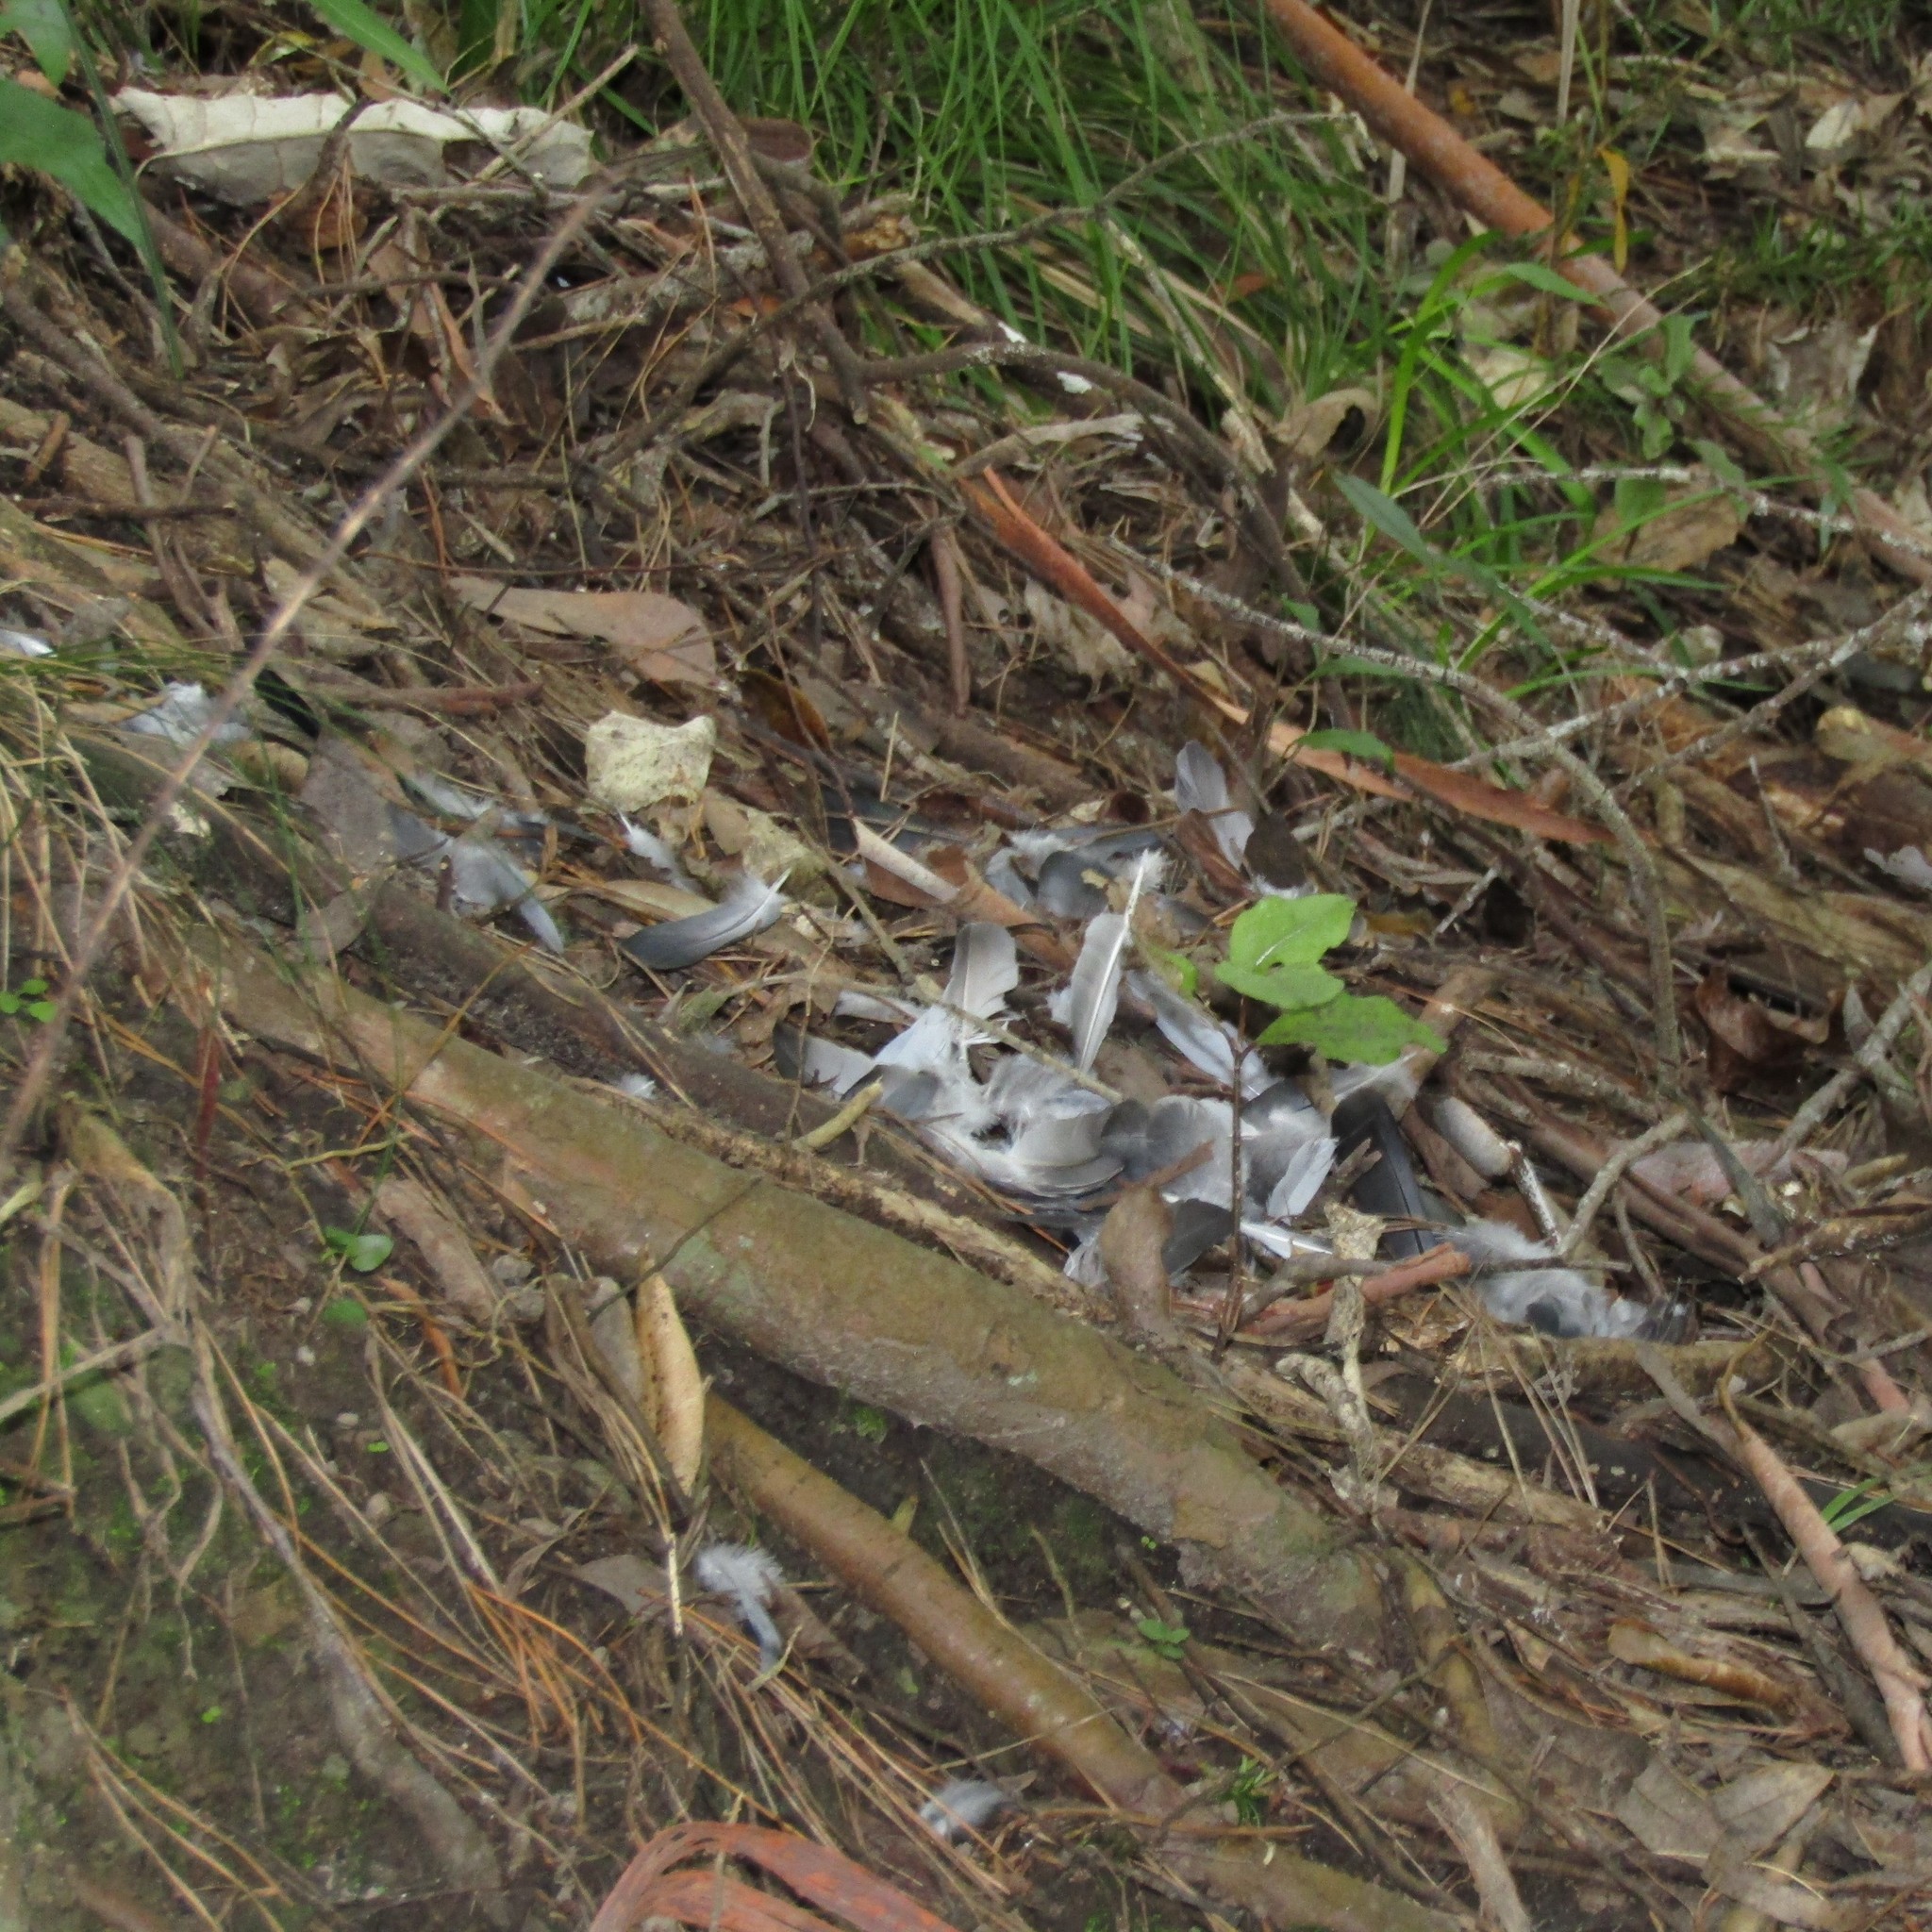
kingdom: Animalia
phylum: Chordata
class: Aves
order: Columbiformes
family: Columbidae
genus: Hemiphaga
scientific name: Hemiphaga novaeseelandiae
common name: New zealand pigeon
